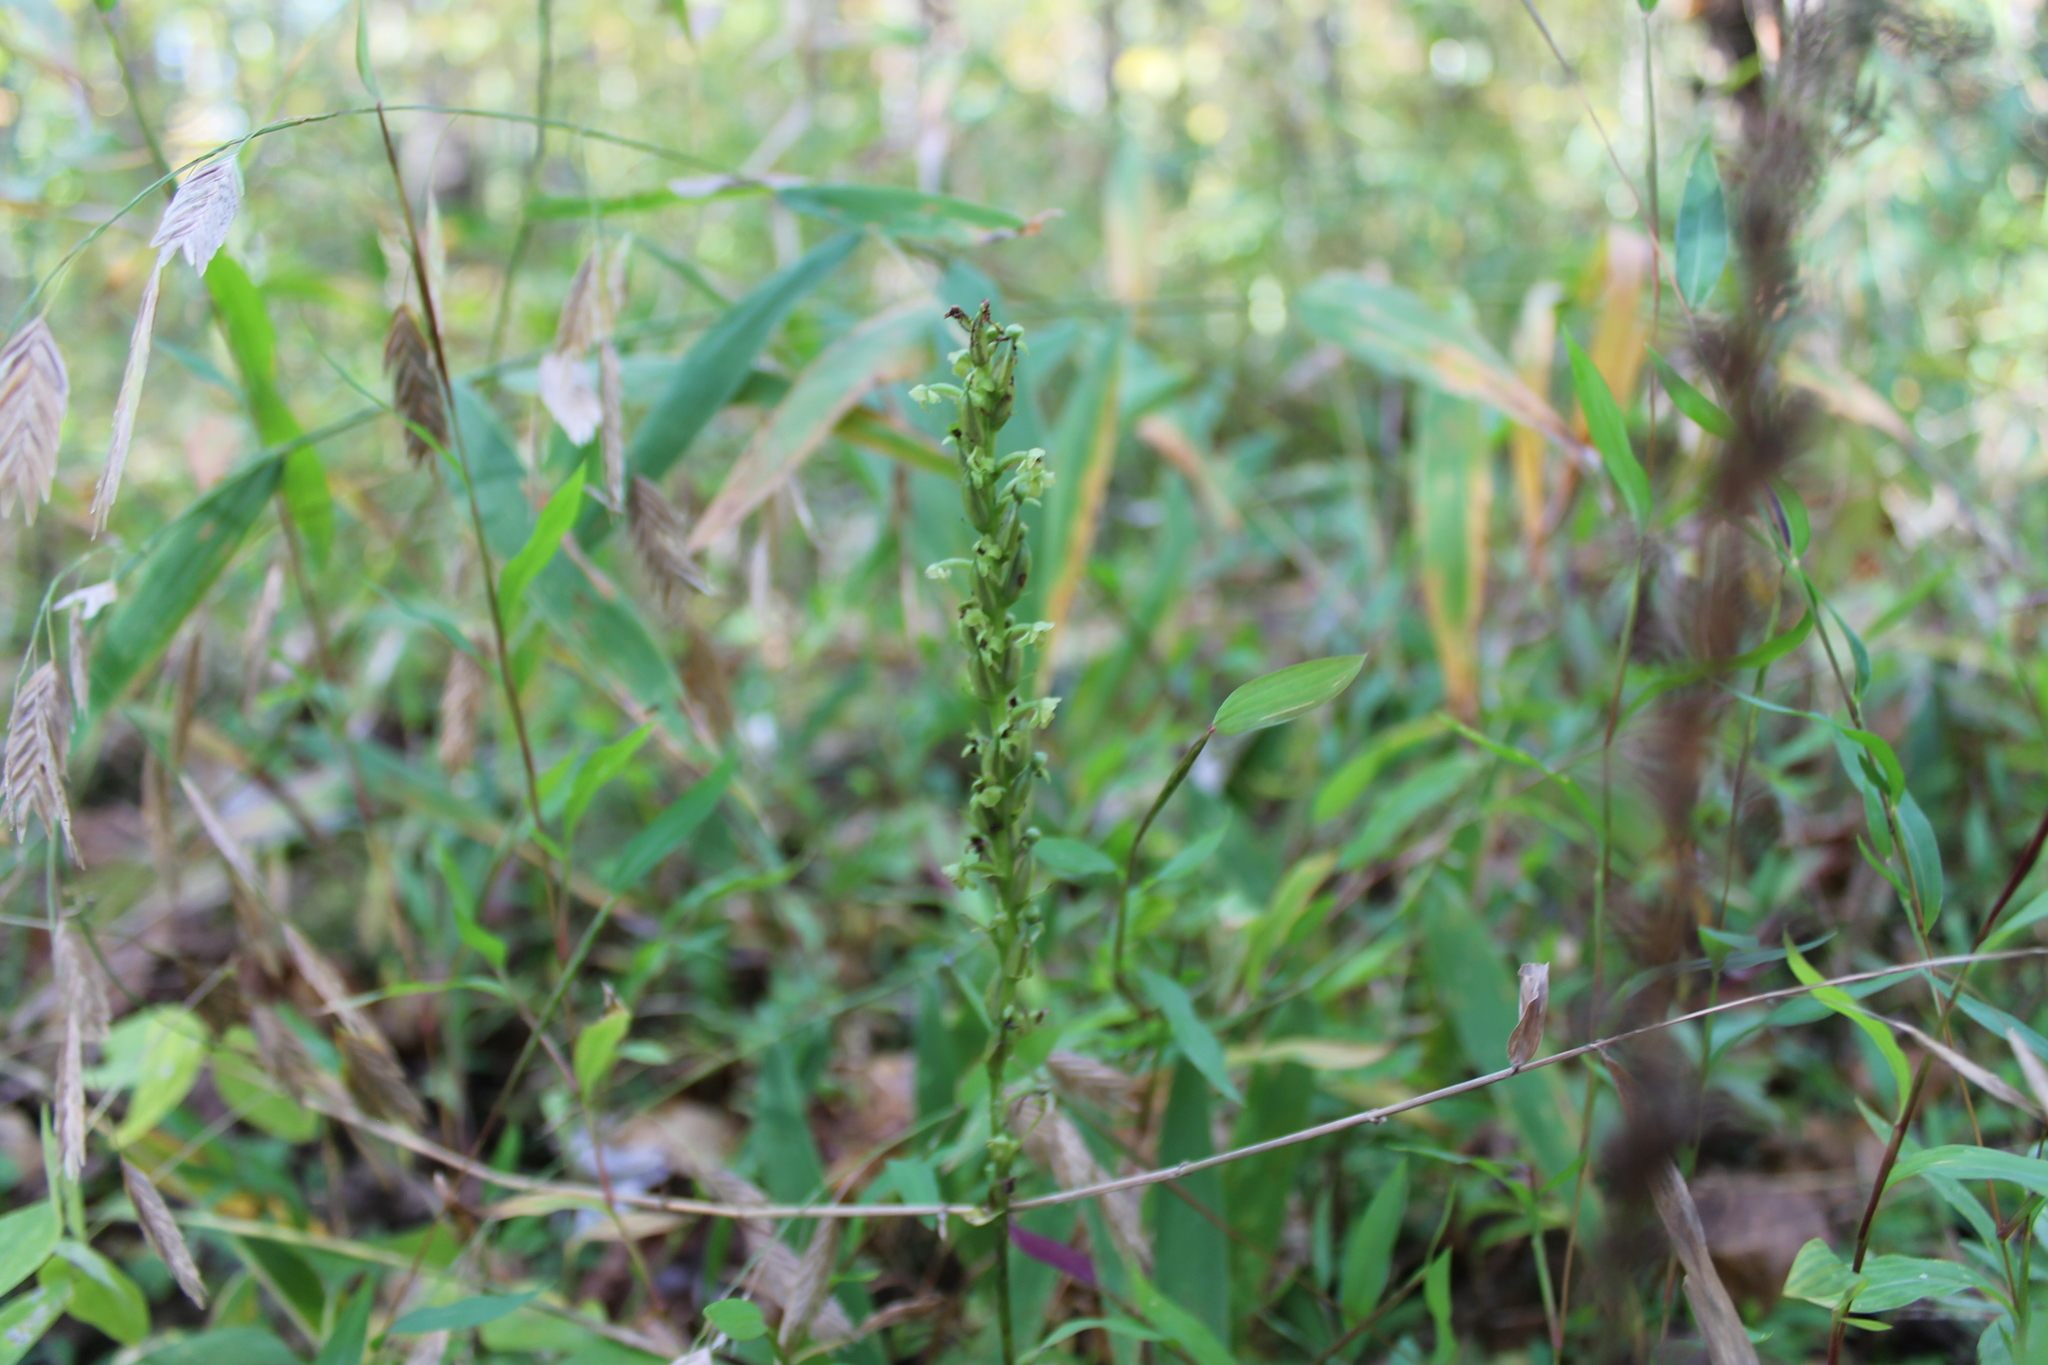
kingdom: Plantae
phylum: Tracheophyta
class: Liliopsida
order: Asparagales
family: Orchidaceae
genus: Platanthera
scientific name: Platanthera flava
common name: Gypsy-spikes
